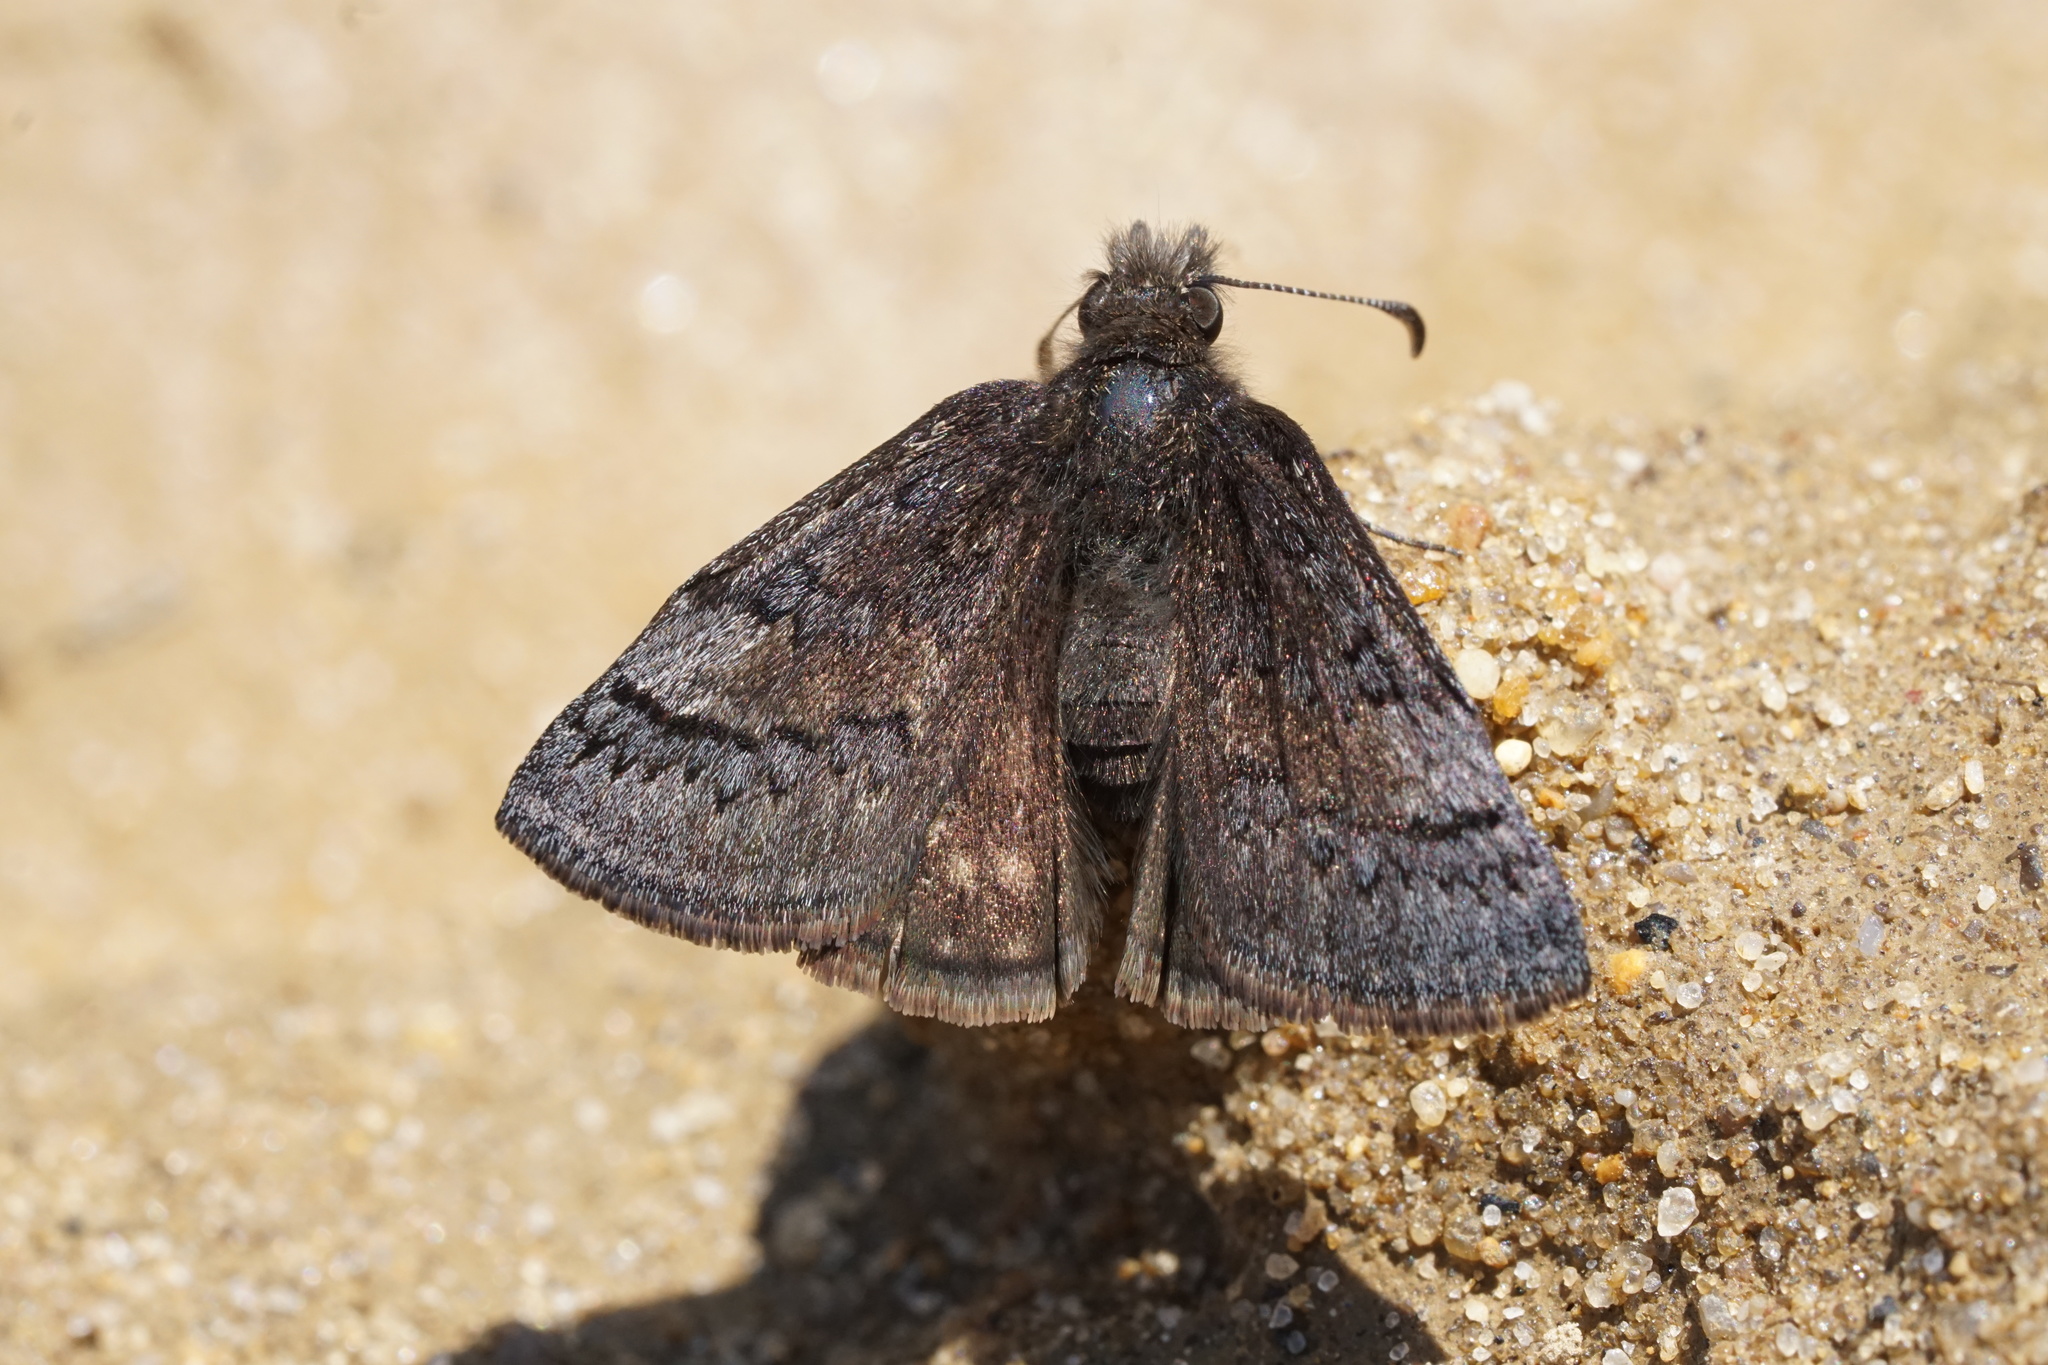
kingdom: Animalia
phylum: Arthropoda
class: Insecta
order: Lepidoptera
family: Hesperiidae
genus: Erynnis
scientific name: Erynnis brizo
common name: Sleepy duskywing
